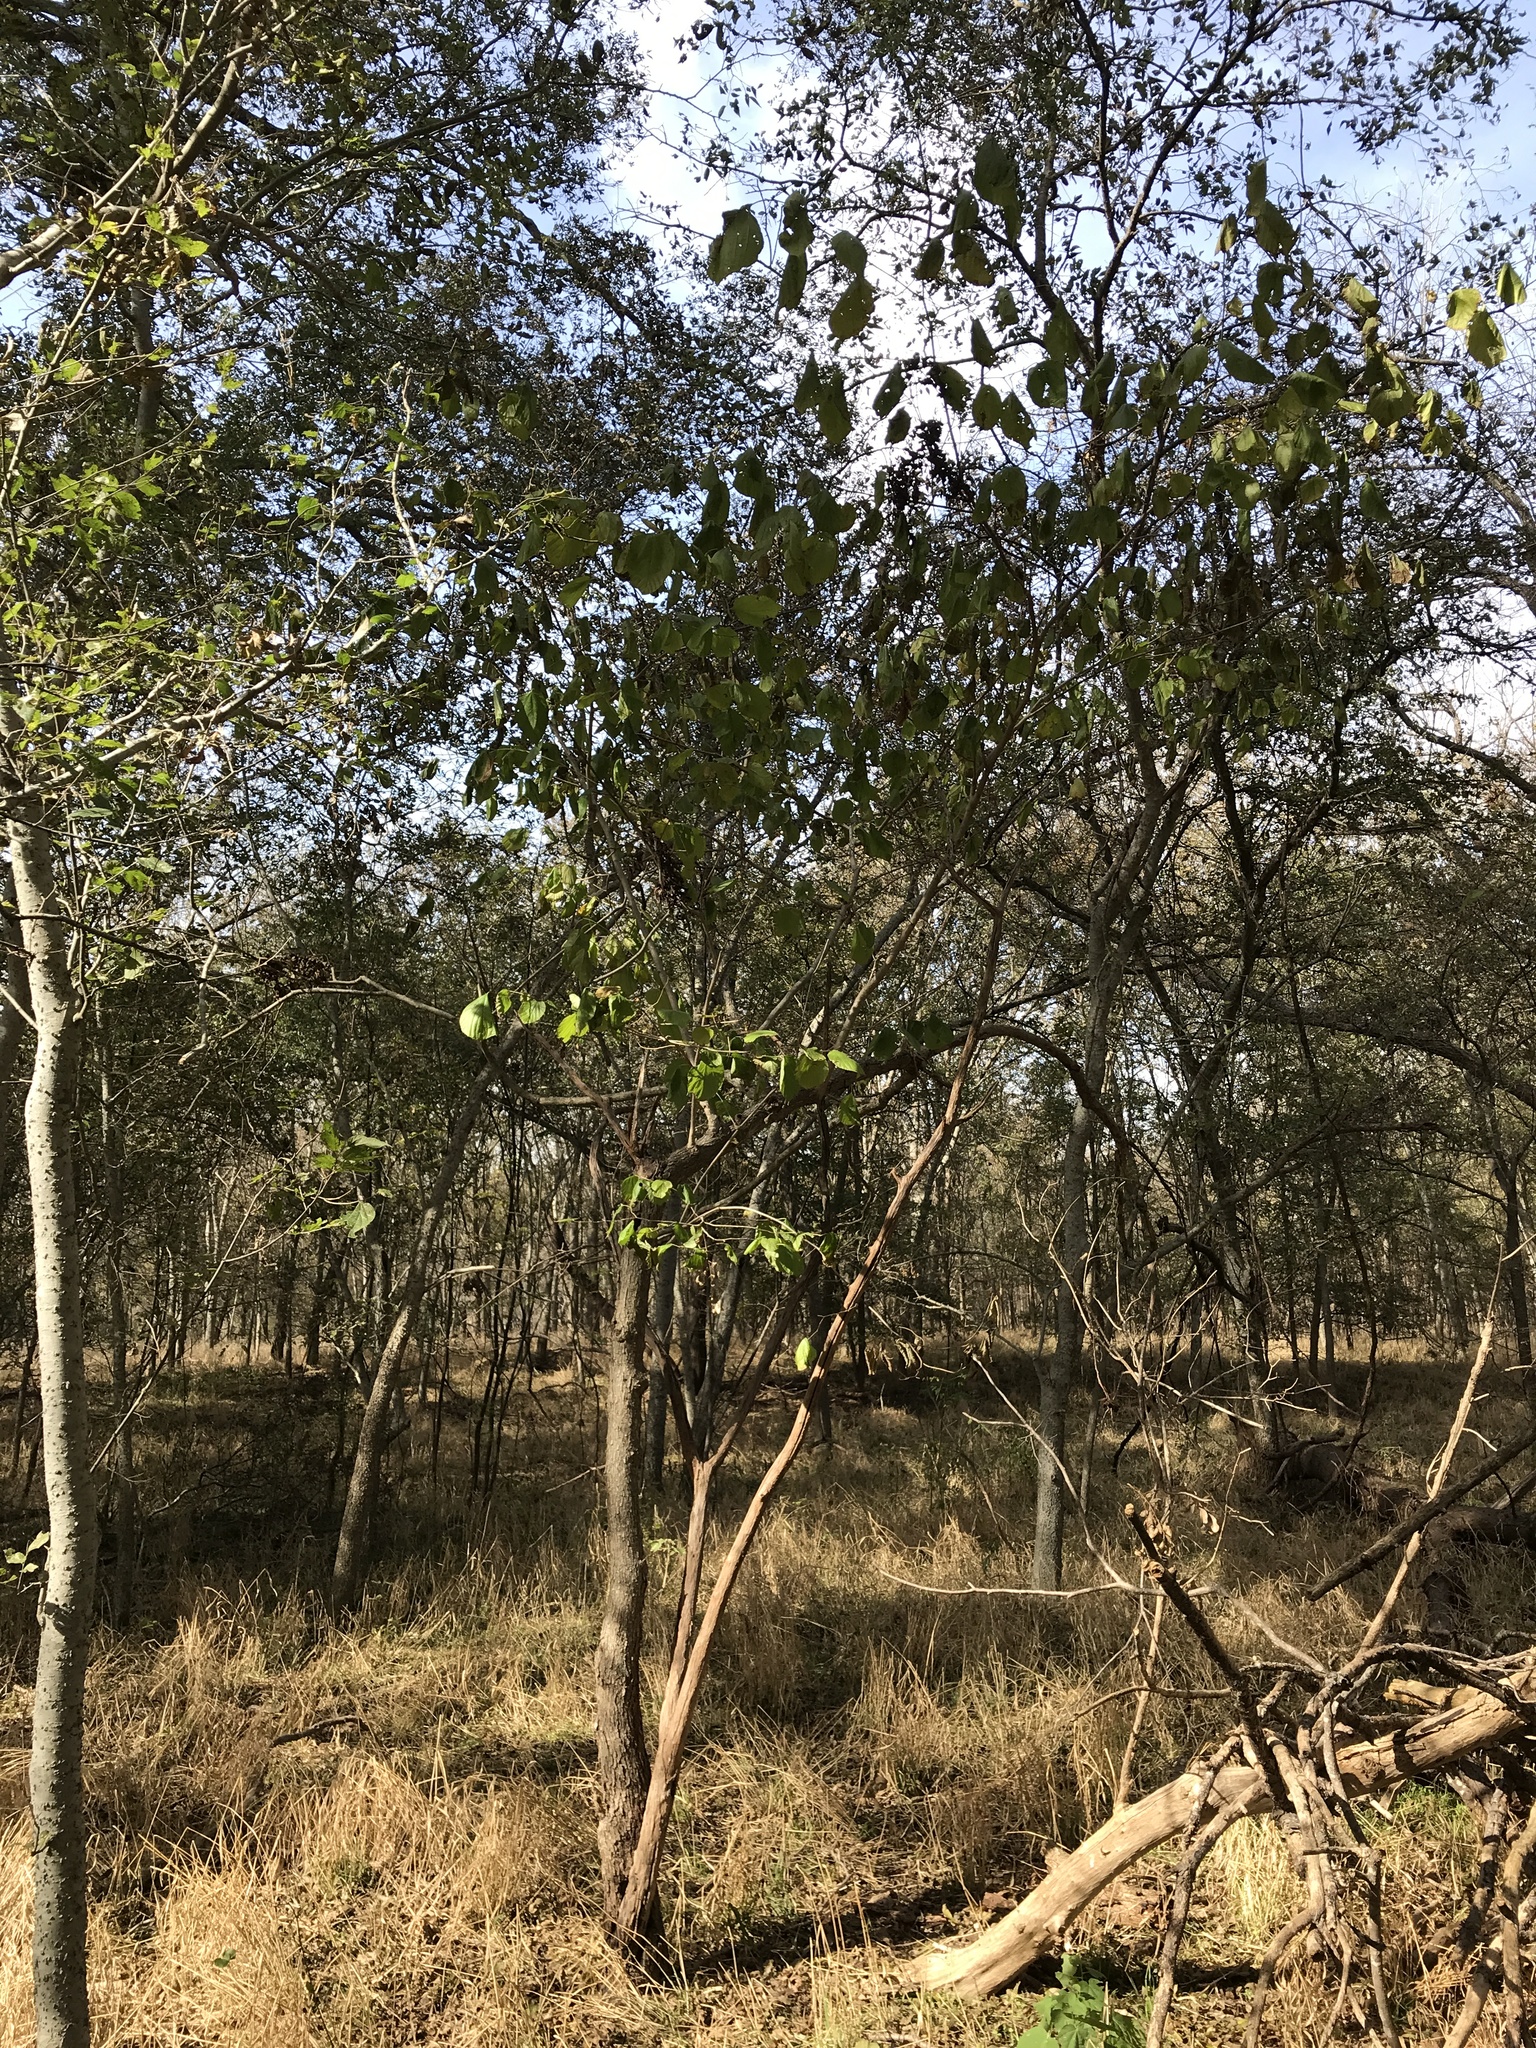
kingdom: Plantae
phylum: Tracheophyta
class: Magnoliopsida
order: Rosales
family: Moraceae
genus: Morus
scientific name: Morus rubra
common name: Red mulberry
